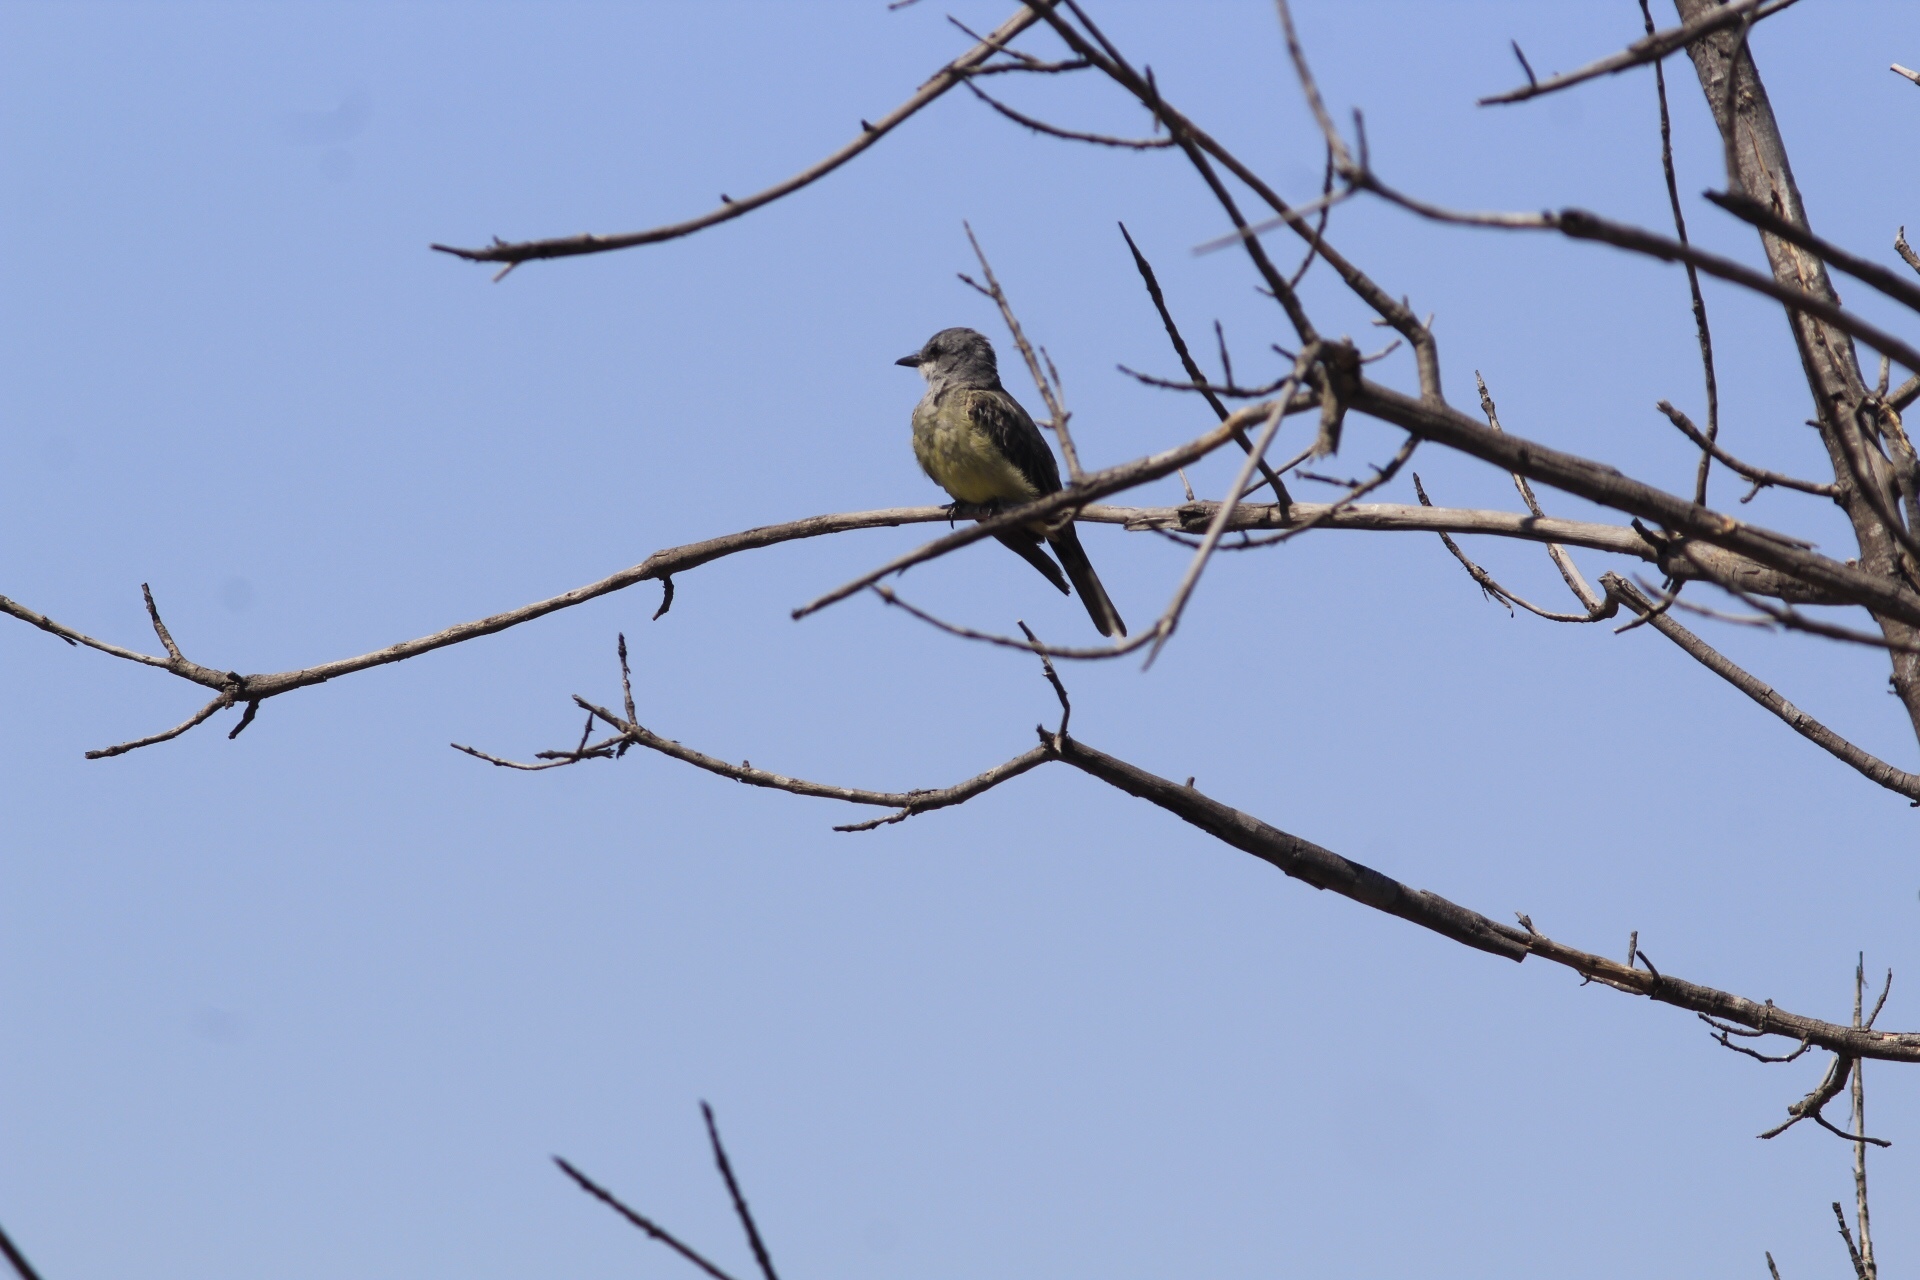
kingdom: Animalia
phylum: Chordata
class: Aves
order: Passeriformes
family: Tyrannidae
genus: Tyrannus
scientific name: Tyrannus vociferans
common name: Cassin's kingbird
